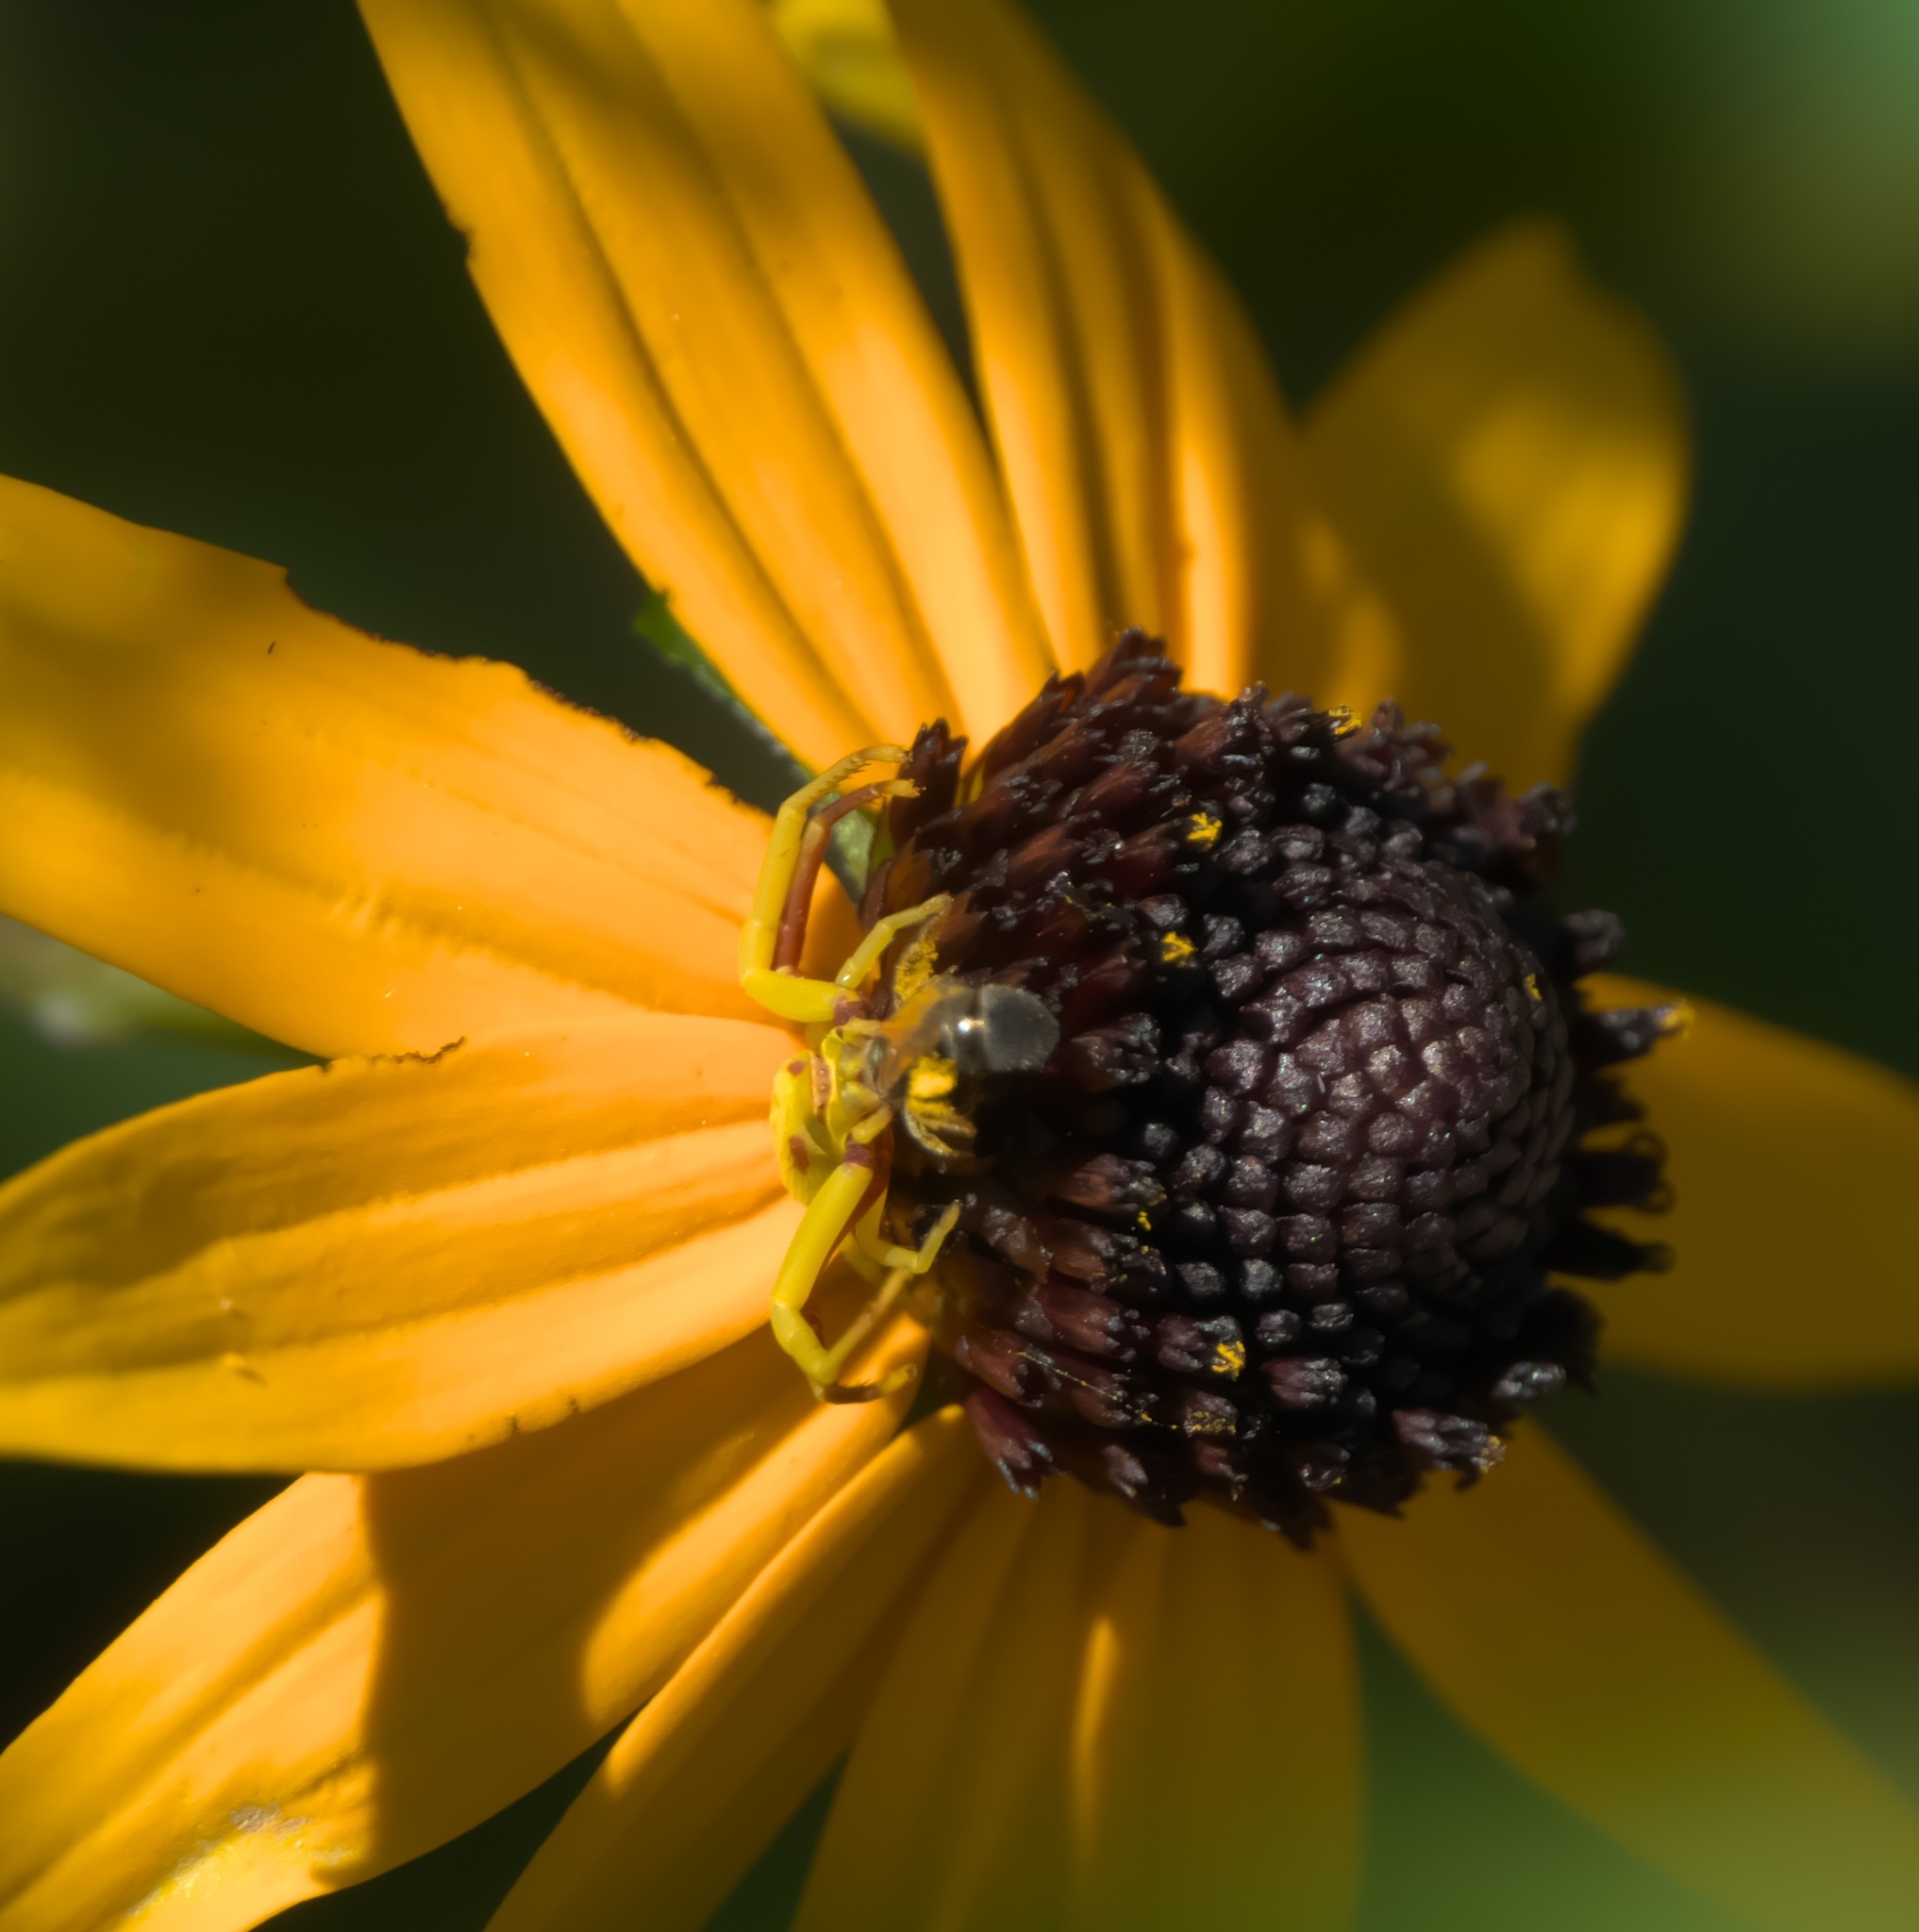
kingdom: Animalia
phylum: Arthropoda
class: Arachnida
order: Araneae
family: Thomisidae
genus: Misumenoides
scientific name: Misumenoides formosipes
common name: White-banded crab spider
